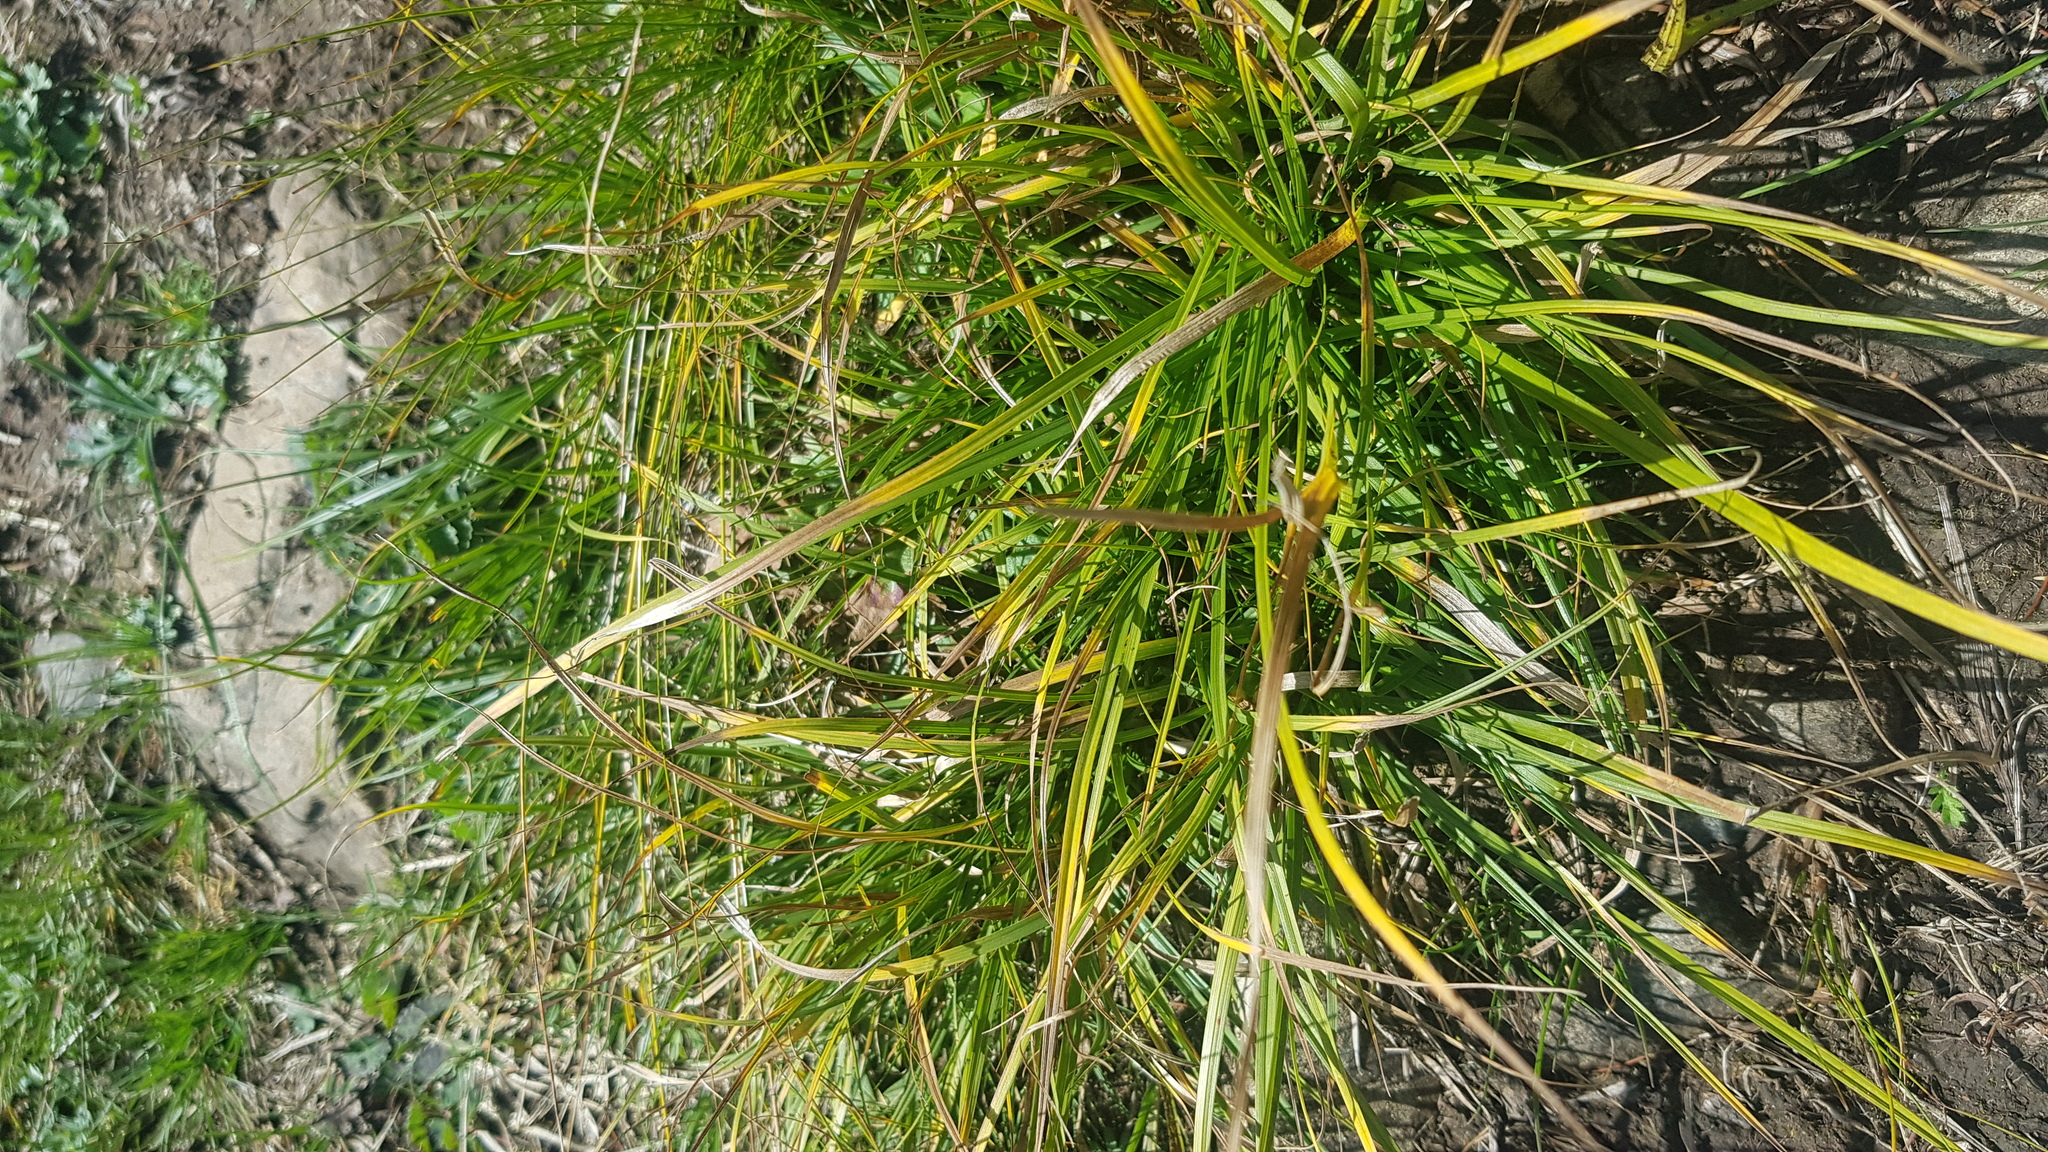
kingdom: Plantae
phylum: Tracheophyta
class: Liliopsida
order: Poales
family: Cyperaceae
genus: Carex
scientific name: Carex pediformis
